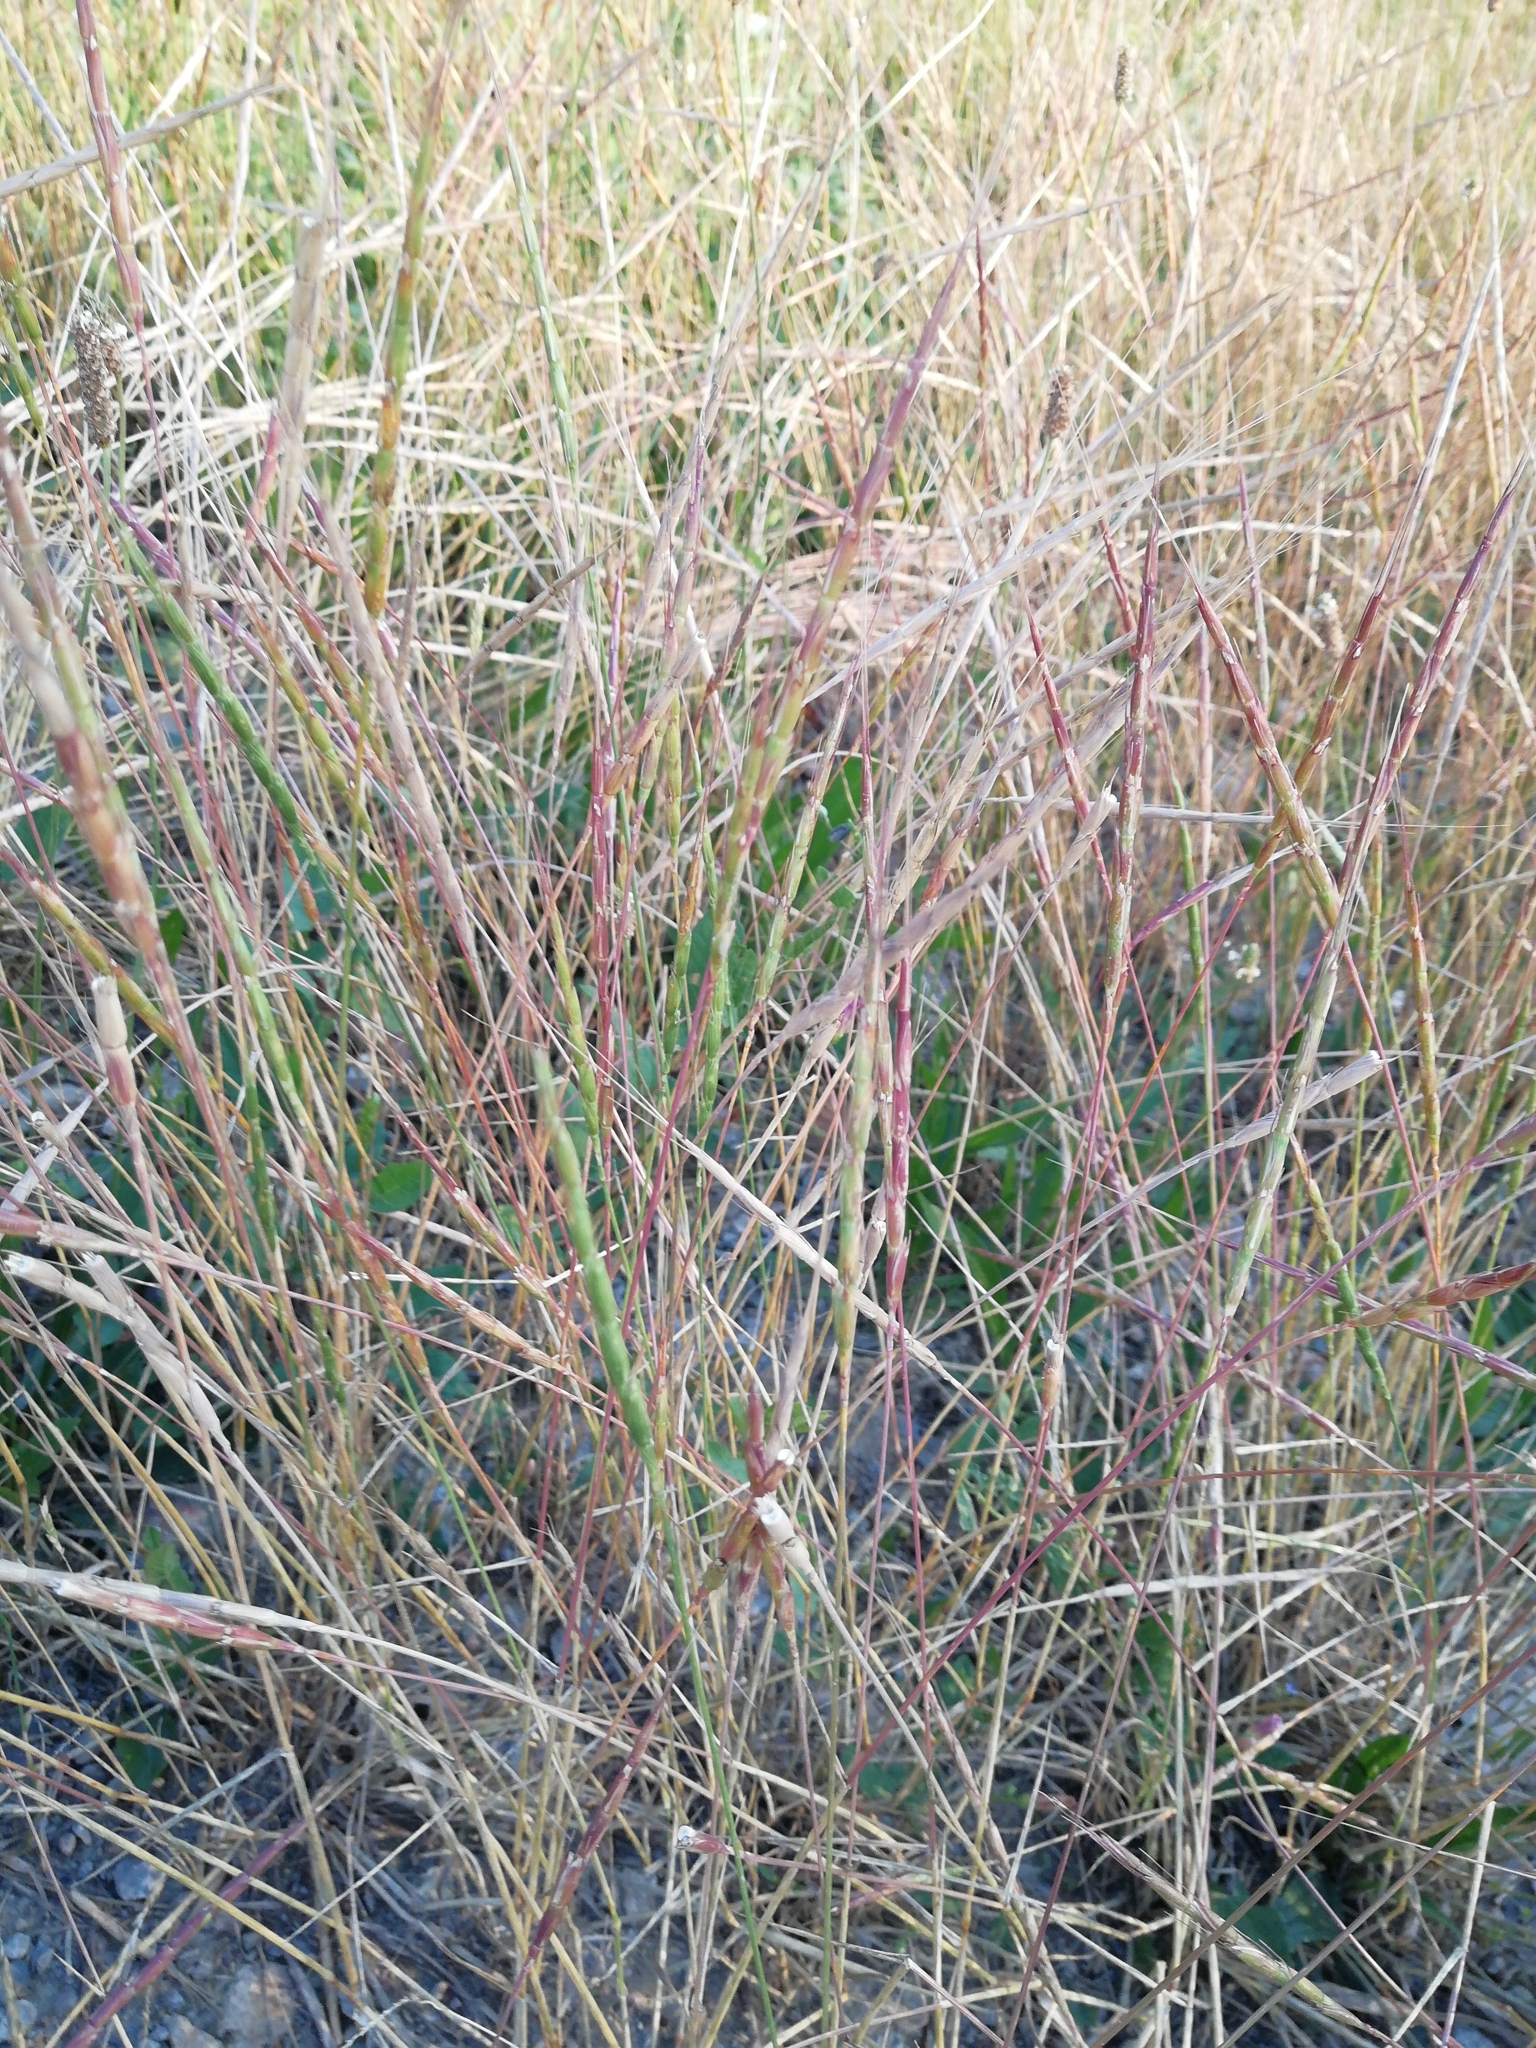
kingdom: Plantae
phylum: Tracheophyta
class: Liliopsida
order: Poales
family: Poaceae
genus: Aegilops
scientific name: Aegilops cylindrica
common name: Jointed goatgrass
